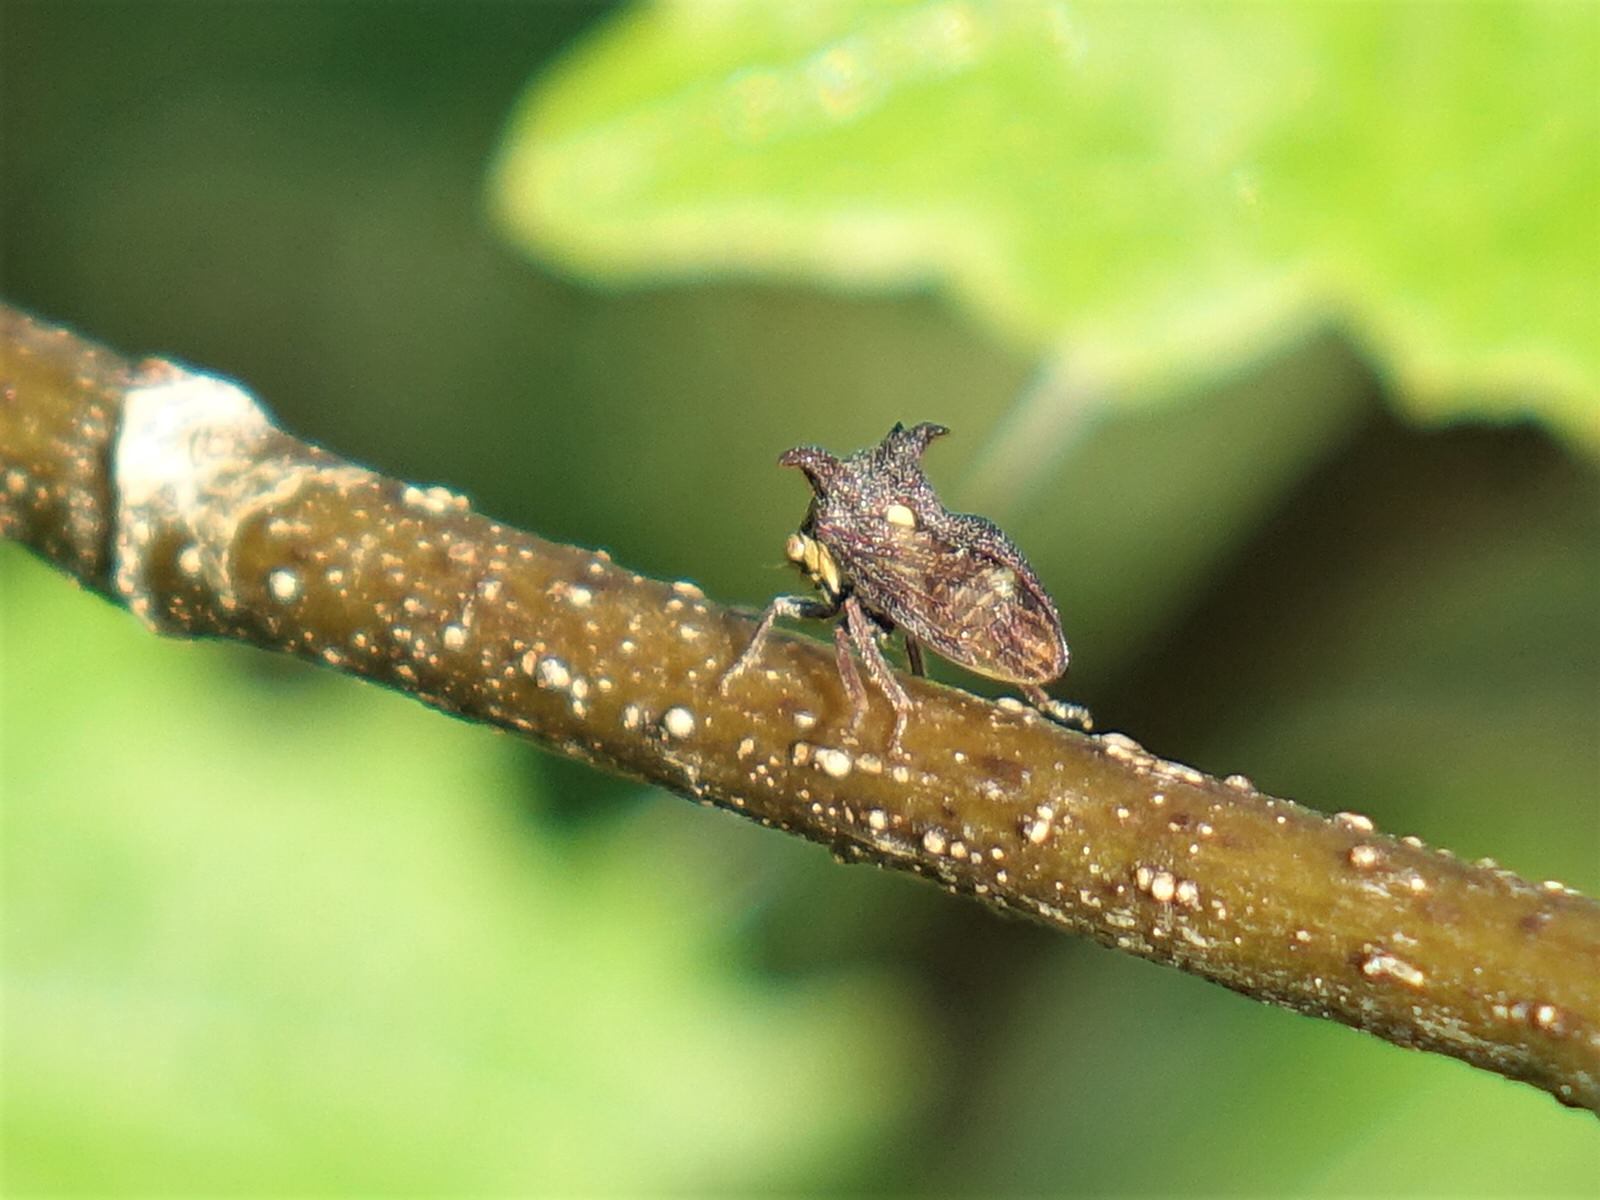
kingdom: Animalia
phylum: Arthropoda
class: Insecta
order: Hemiptera
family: Membracidae
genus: Acanthuchus
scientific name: Acanthuchus trispinifer
